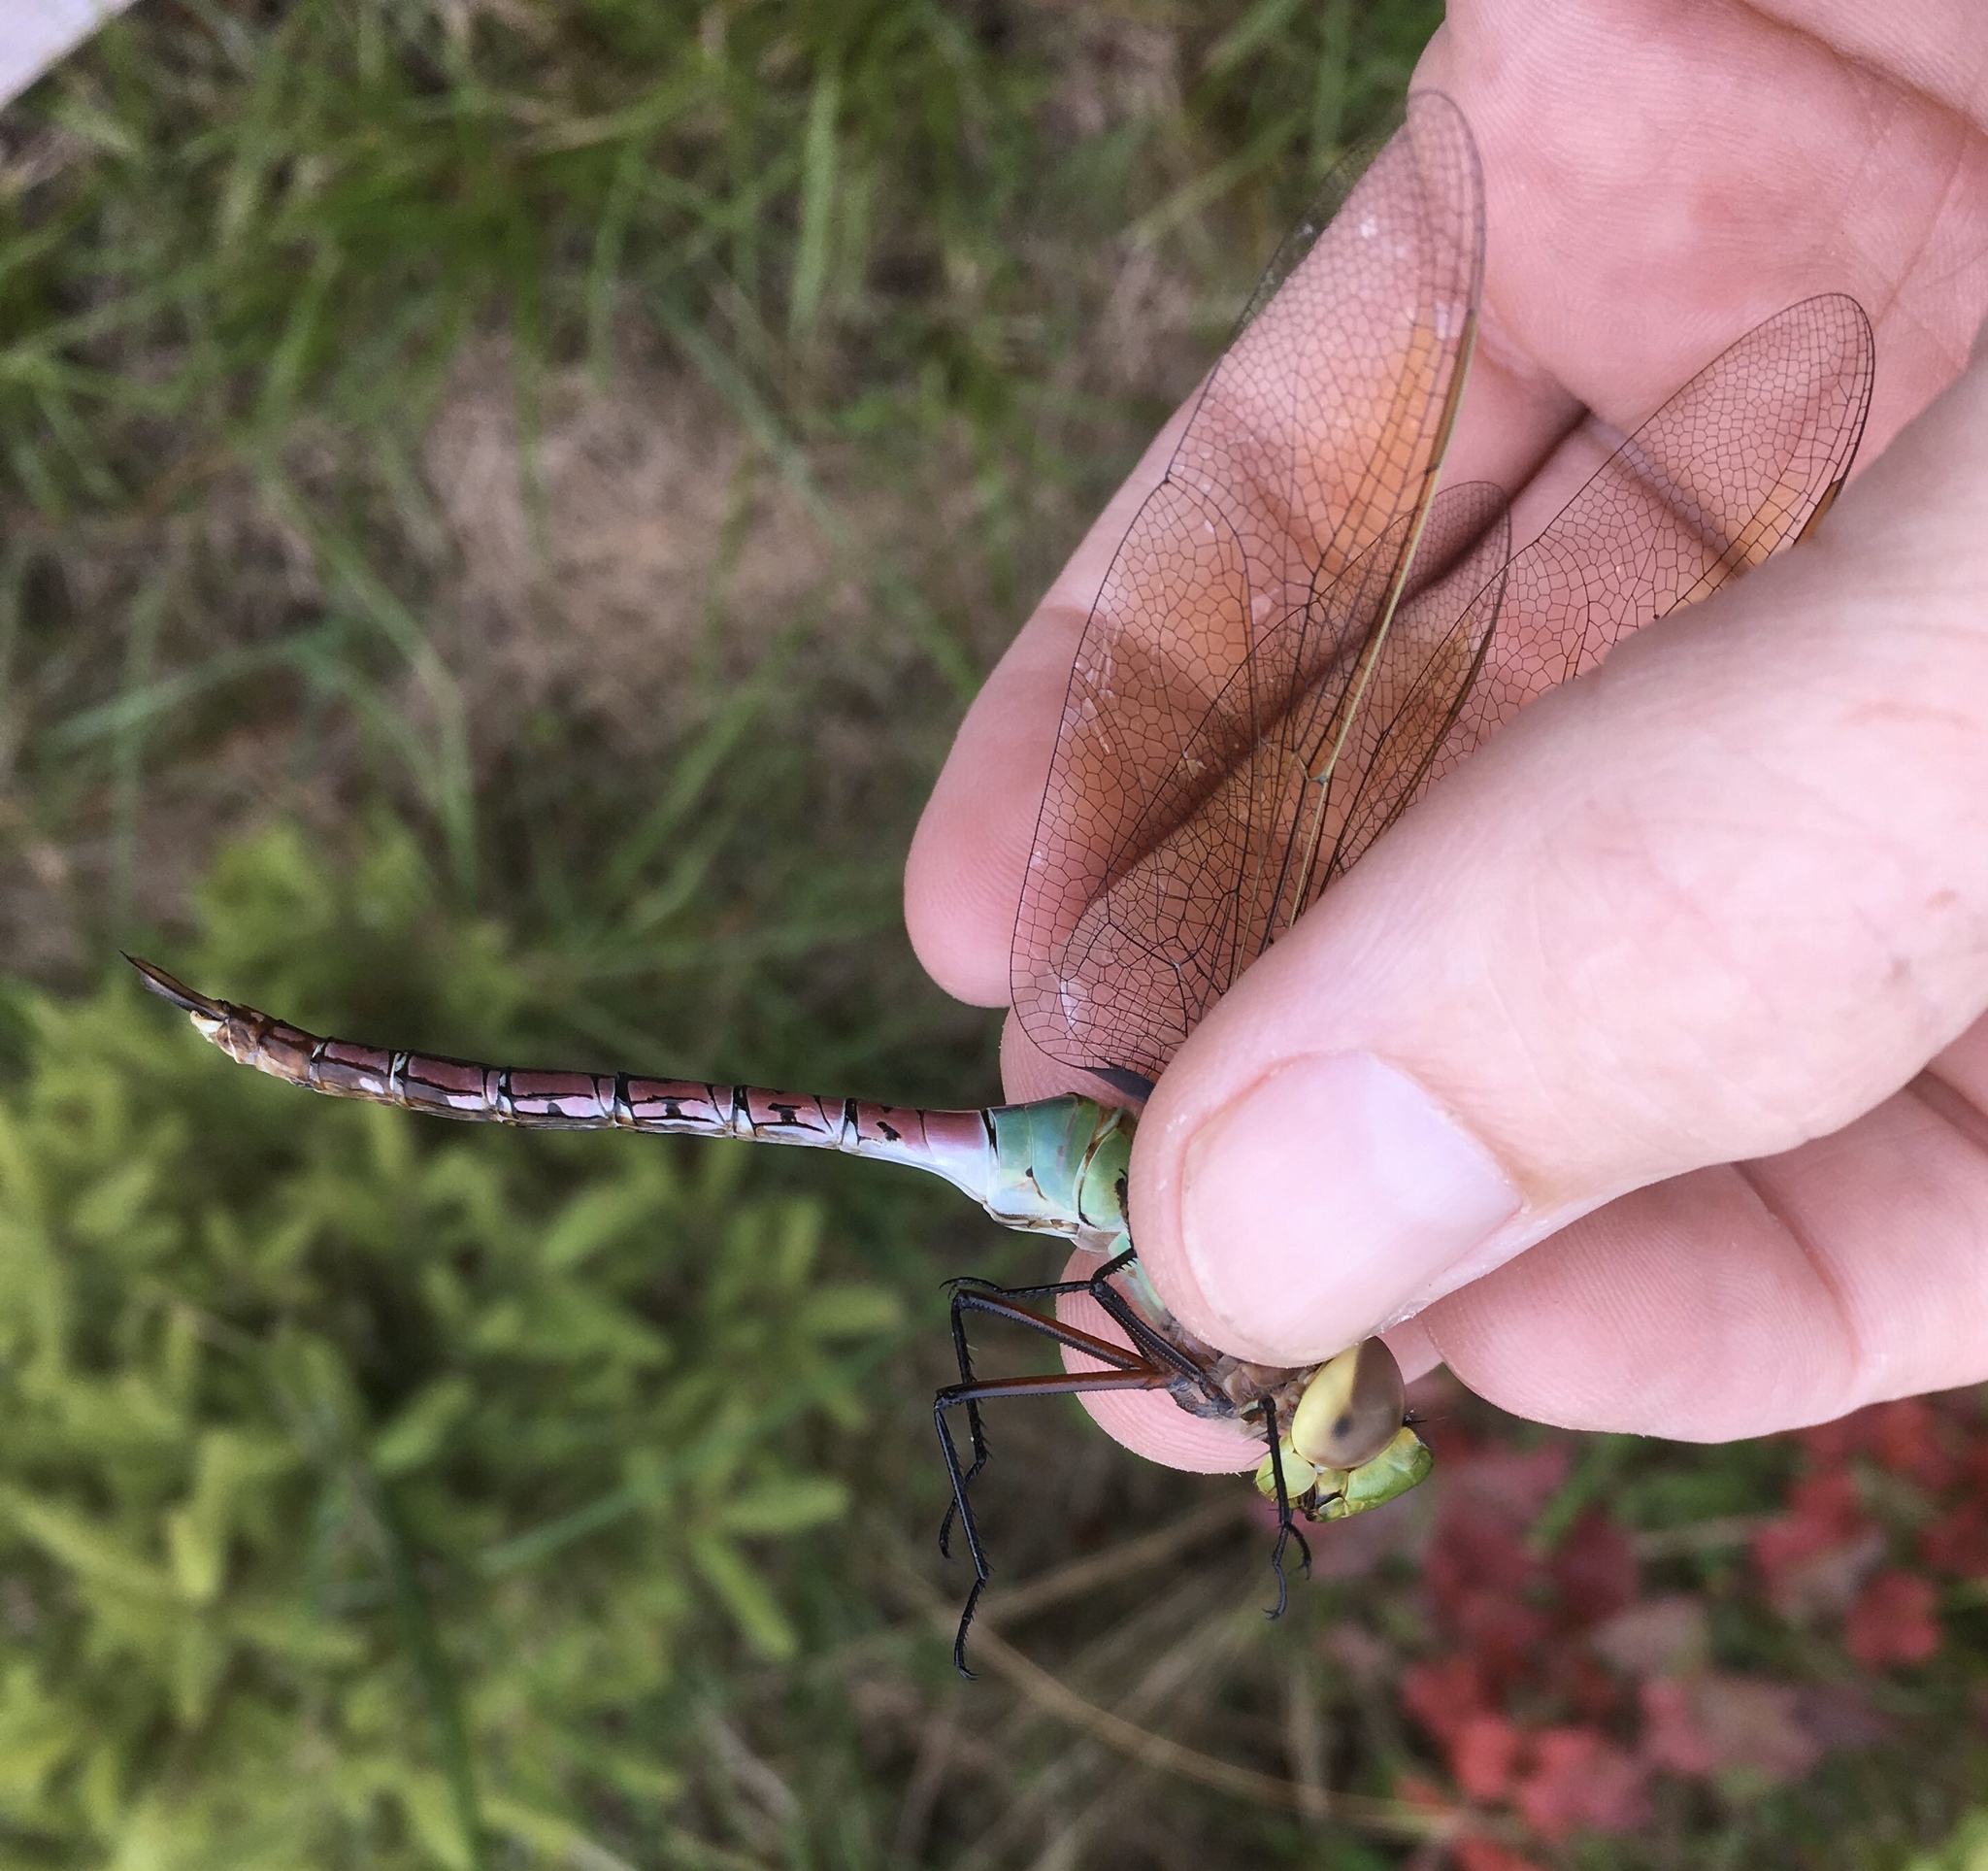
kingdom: Animalia
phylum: Arthropoda
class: Insecta
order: Odonata
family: Aeshnidae
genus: Anax
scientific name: Anax junius
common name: Common green darner
